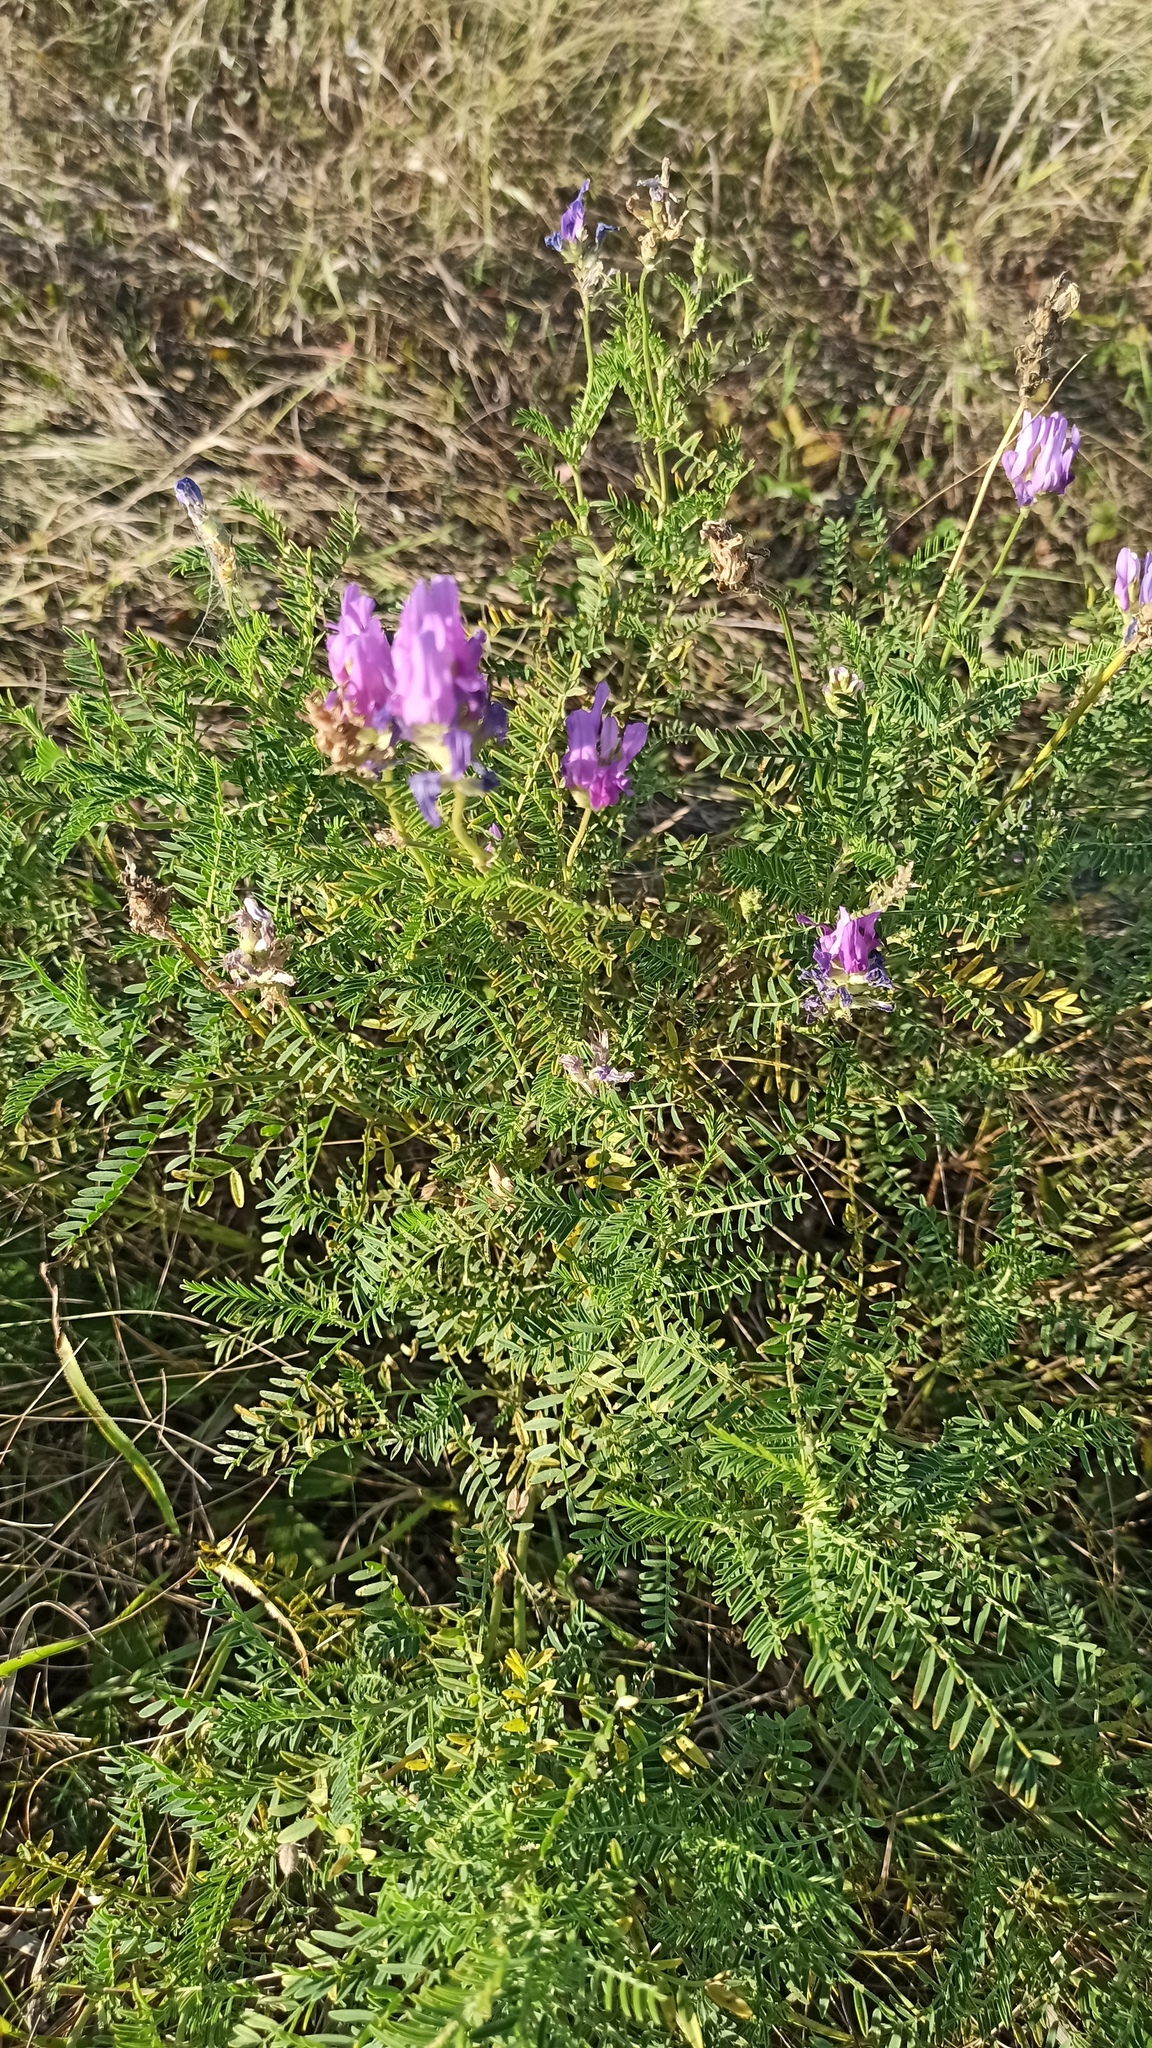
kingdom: Plantae
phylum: Tracheophyta
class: Magnoliopsida
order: Fabales
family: Fabaceae
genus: Astragalus
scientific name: Astragalus onobrychis
